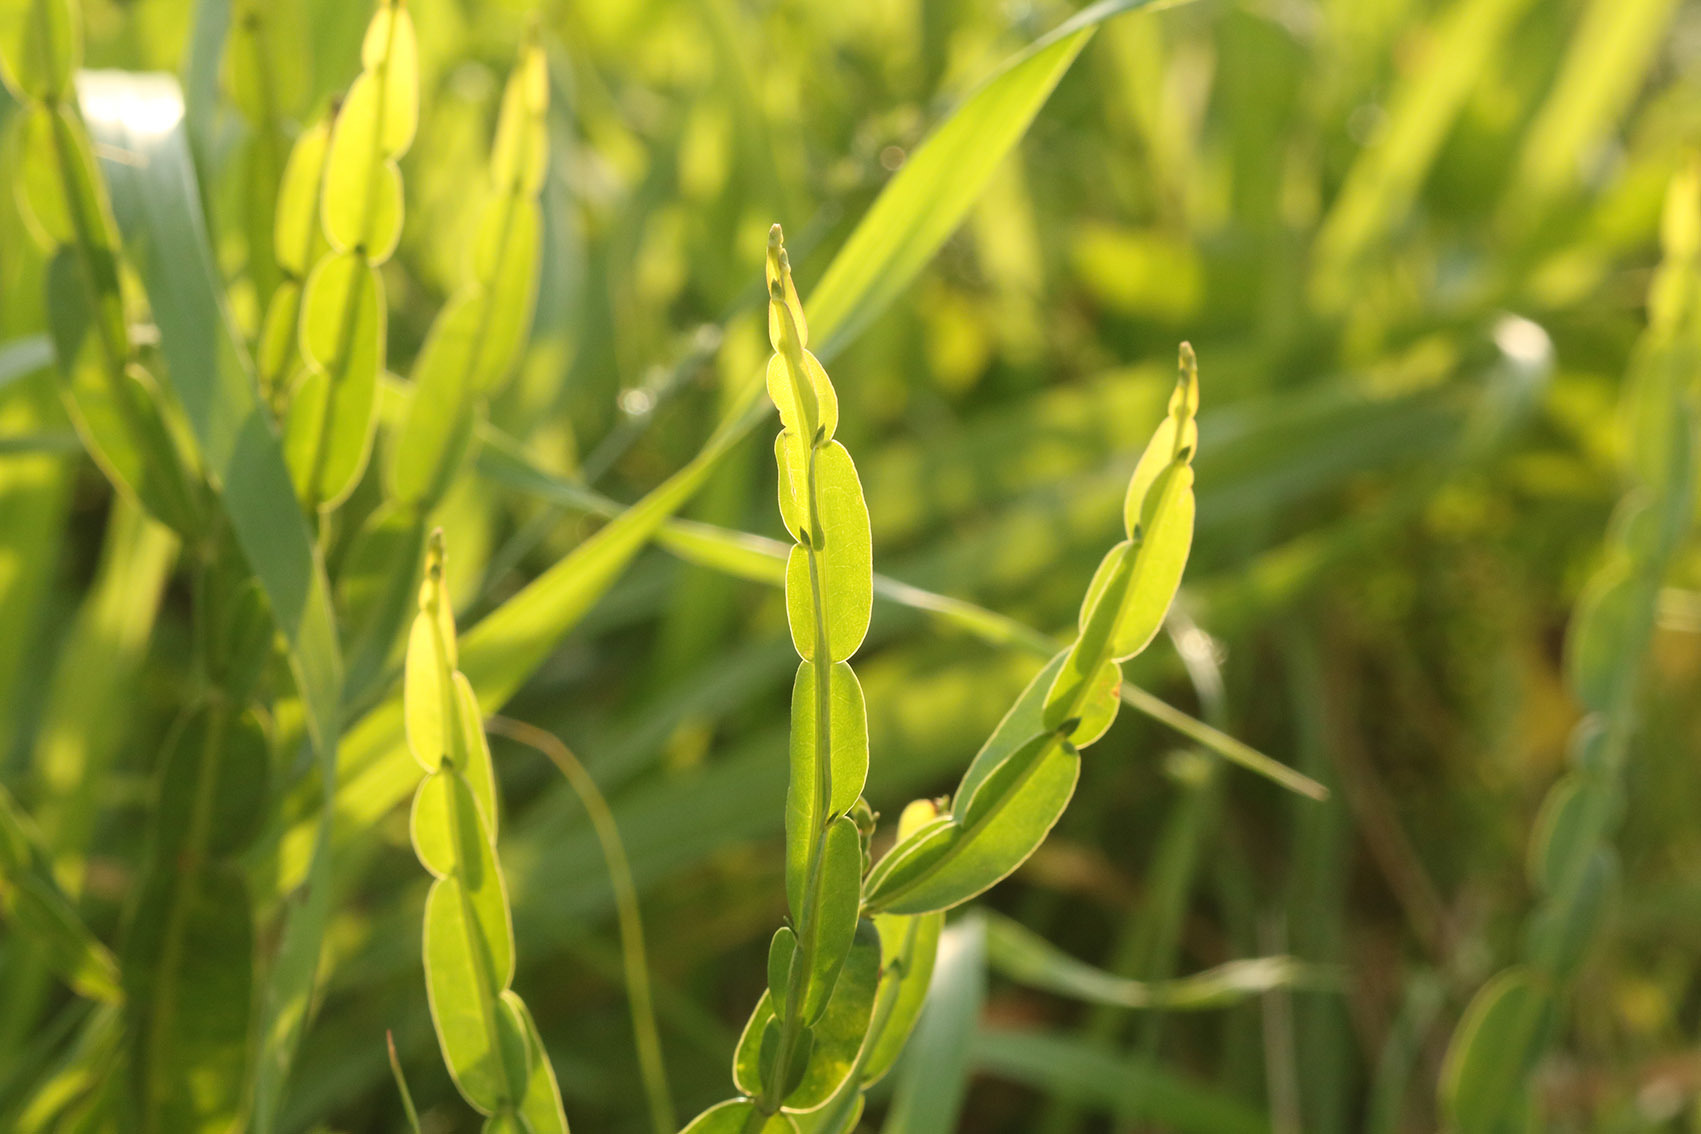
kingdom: Plantae
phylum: Tracheophyta
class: Magnoliopsida
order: Asterales
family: Asteraceae
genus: Baccharis
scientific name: Baccharis trimera
